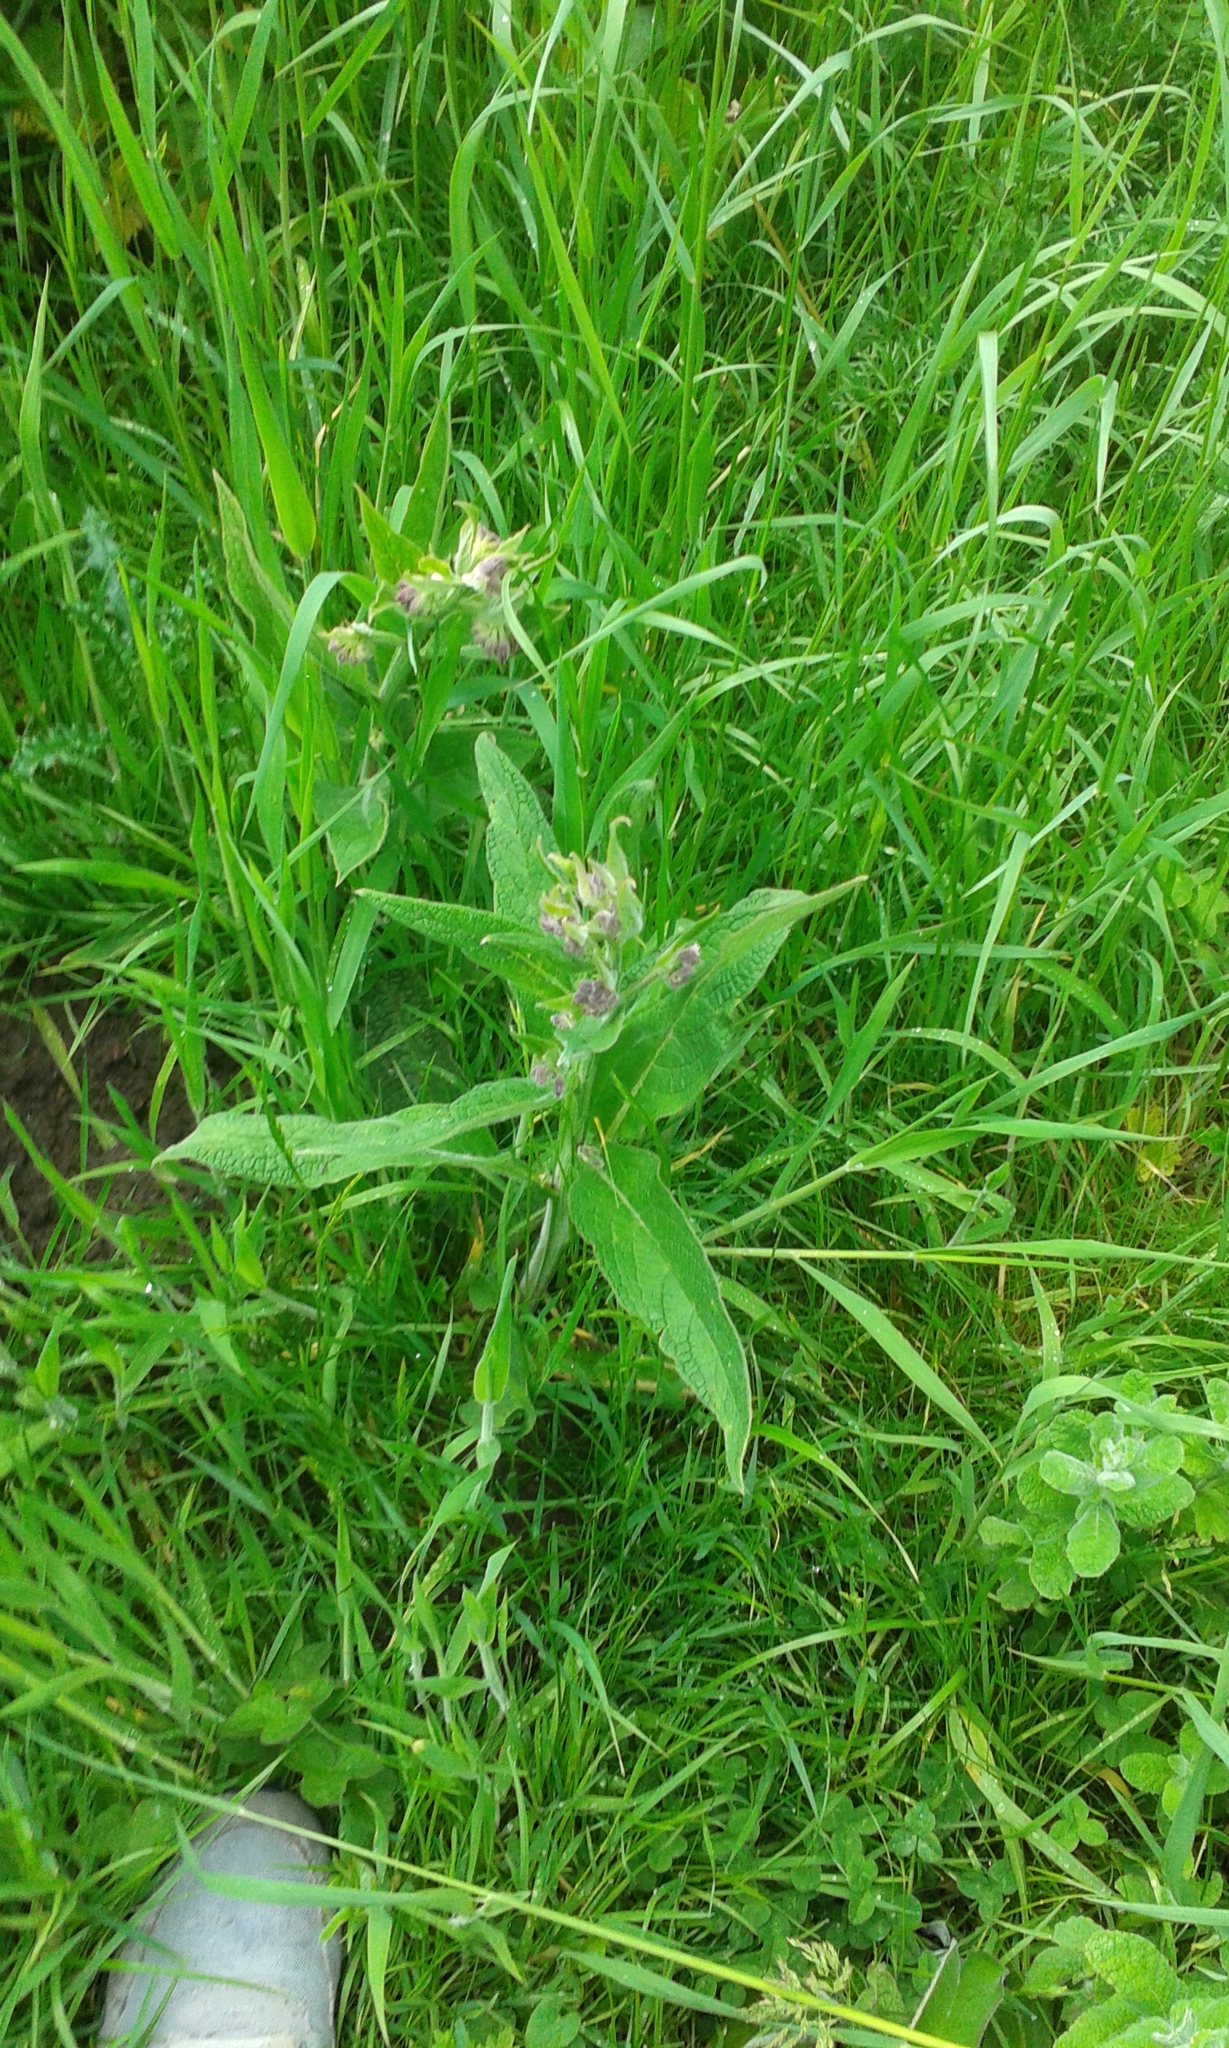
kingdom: Plantae
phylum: Tracheophyta
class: Magnoliopsida
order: Boraginales
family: Boraginaceae
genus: Symphytum
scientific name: Symphytum officinale
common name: Common comfrey
